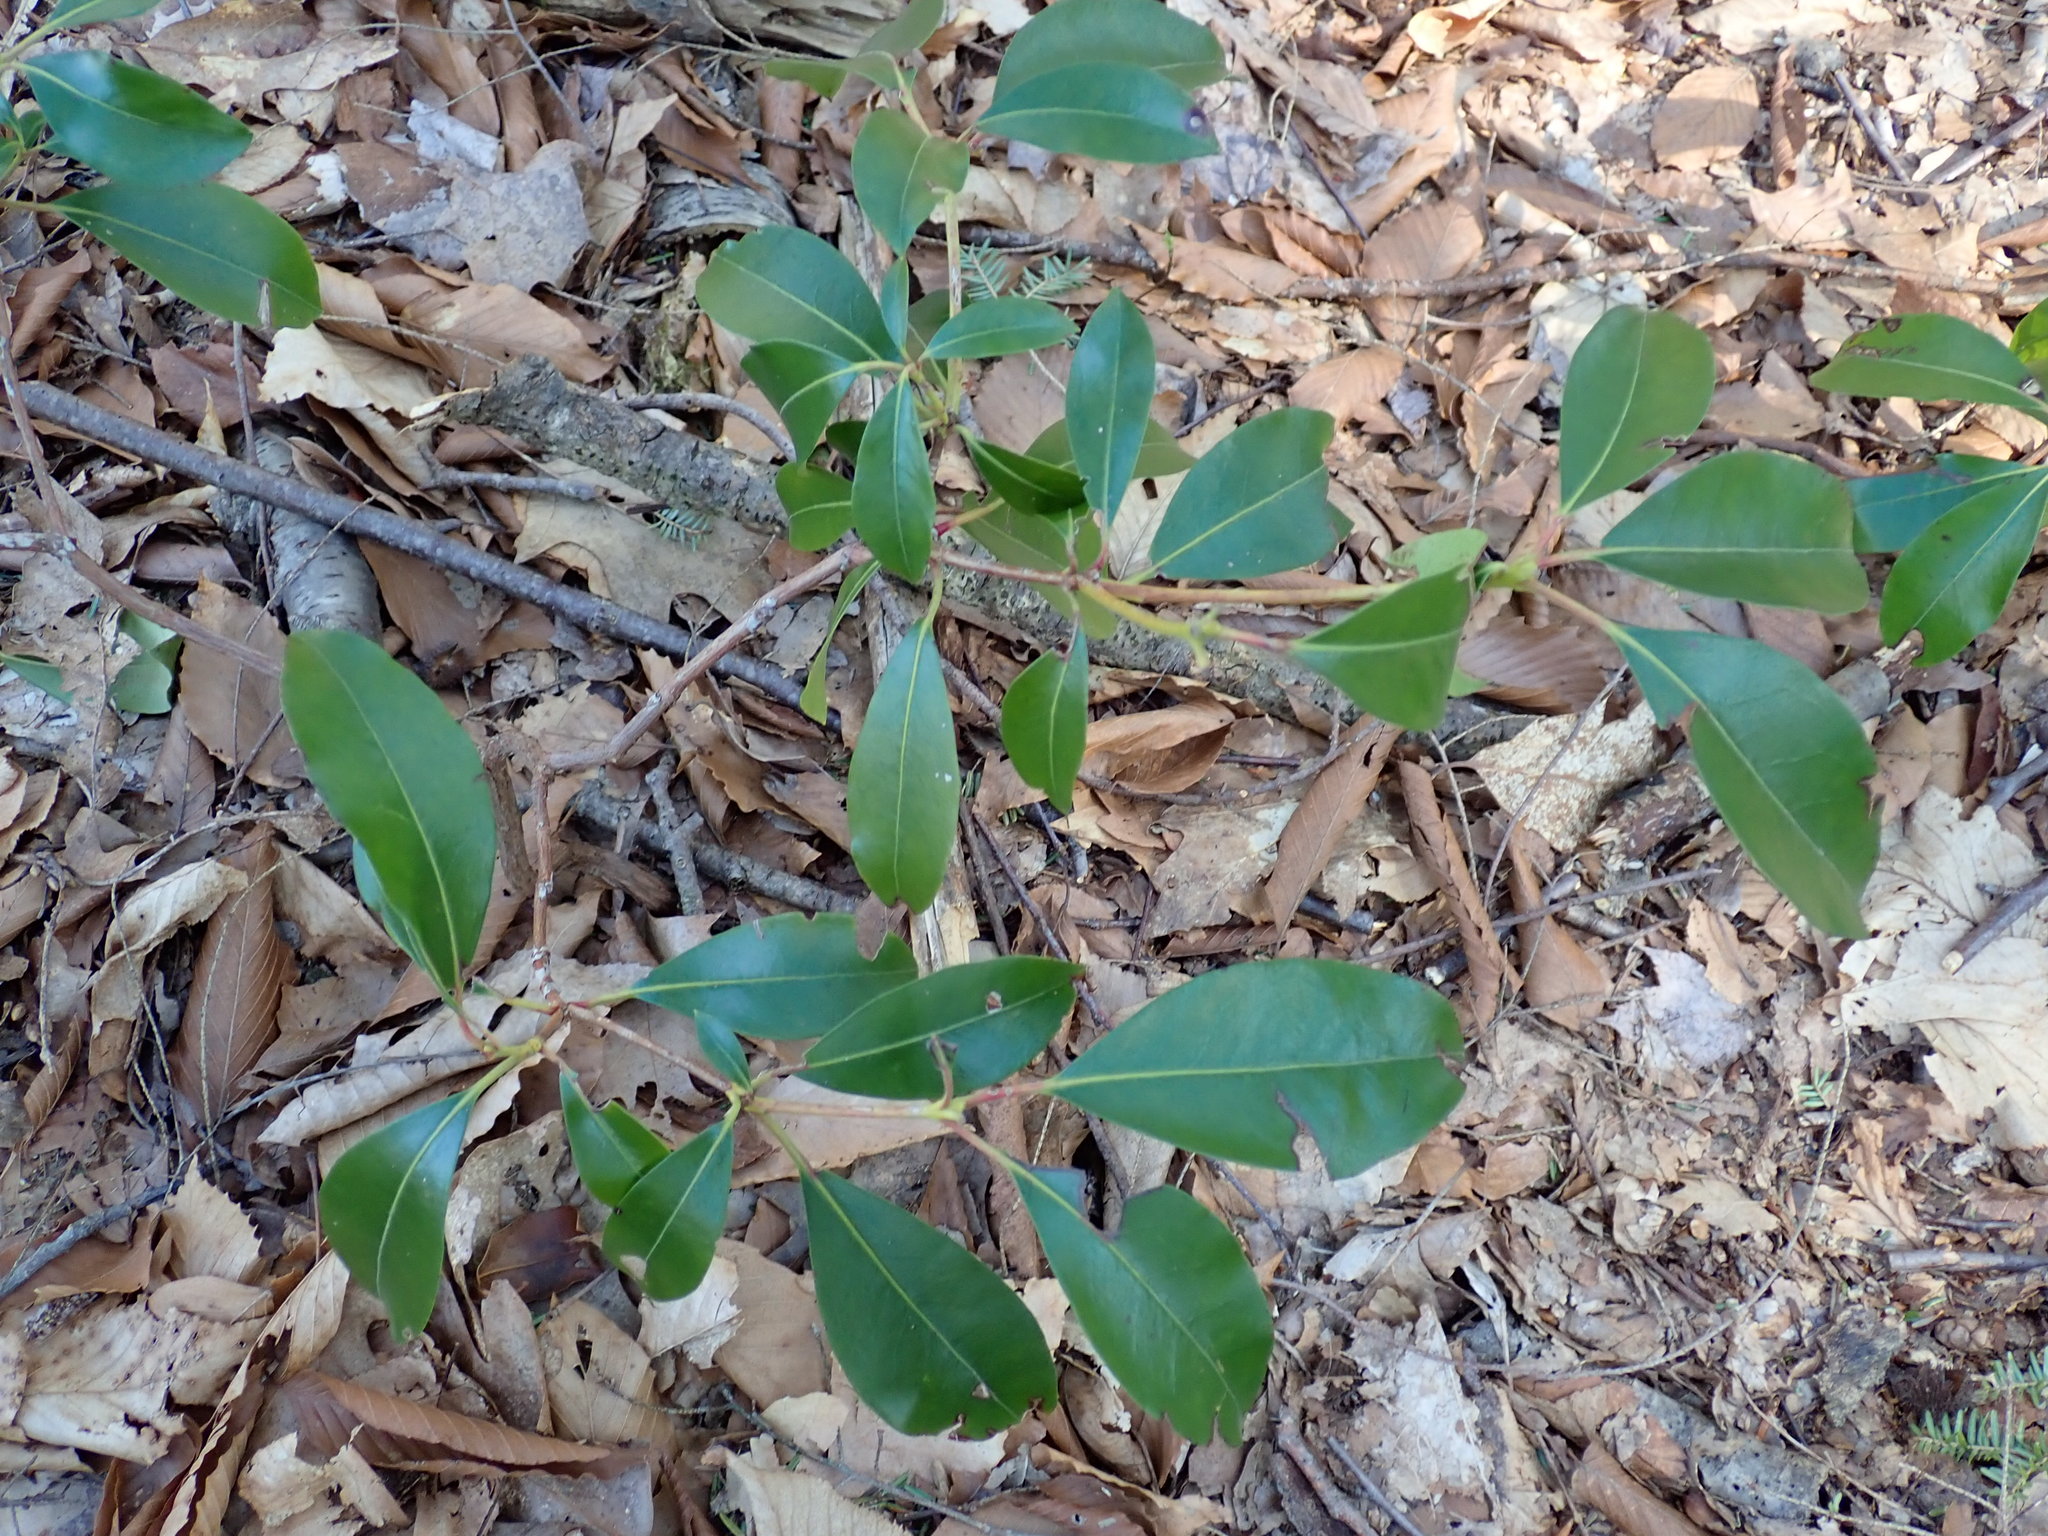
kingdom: Plantae
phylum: Tracheophyta
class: Magnoliopsida
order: Ericales
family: Ericaceae
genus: Kalmia
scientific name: Kalmia latifolia
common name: Mountain-laurel
